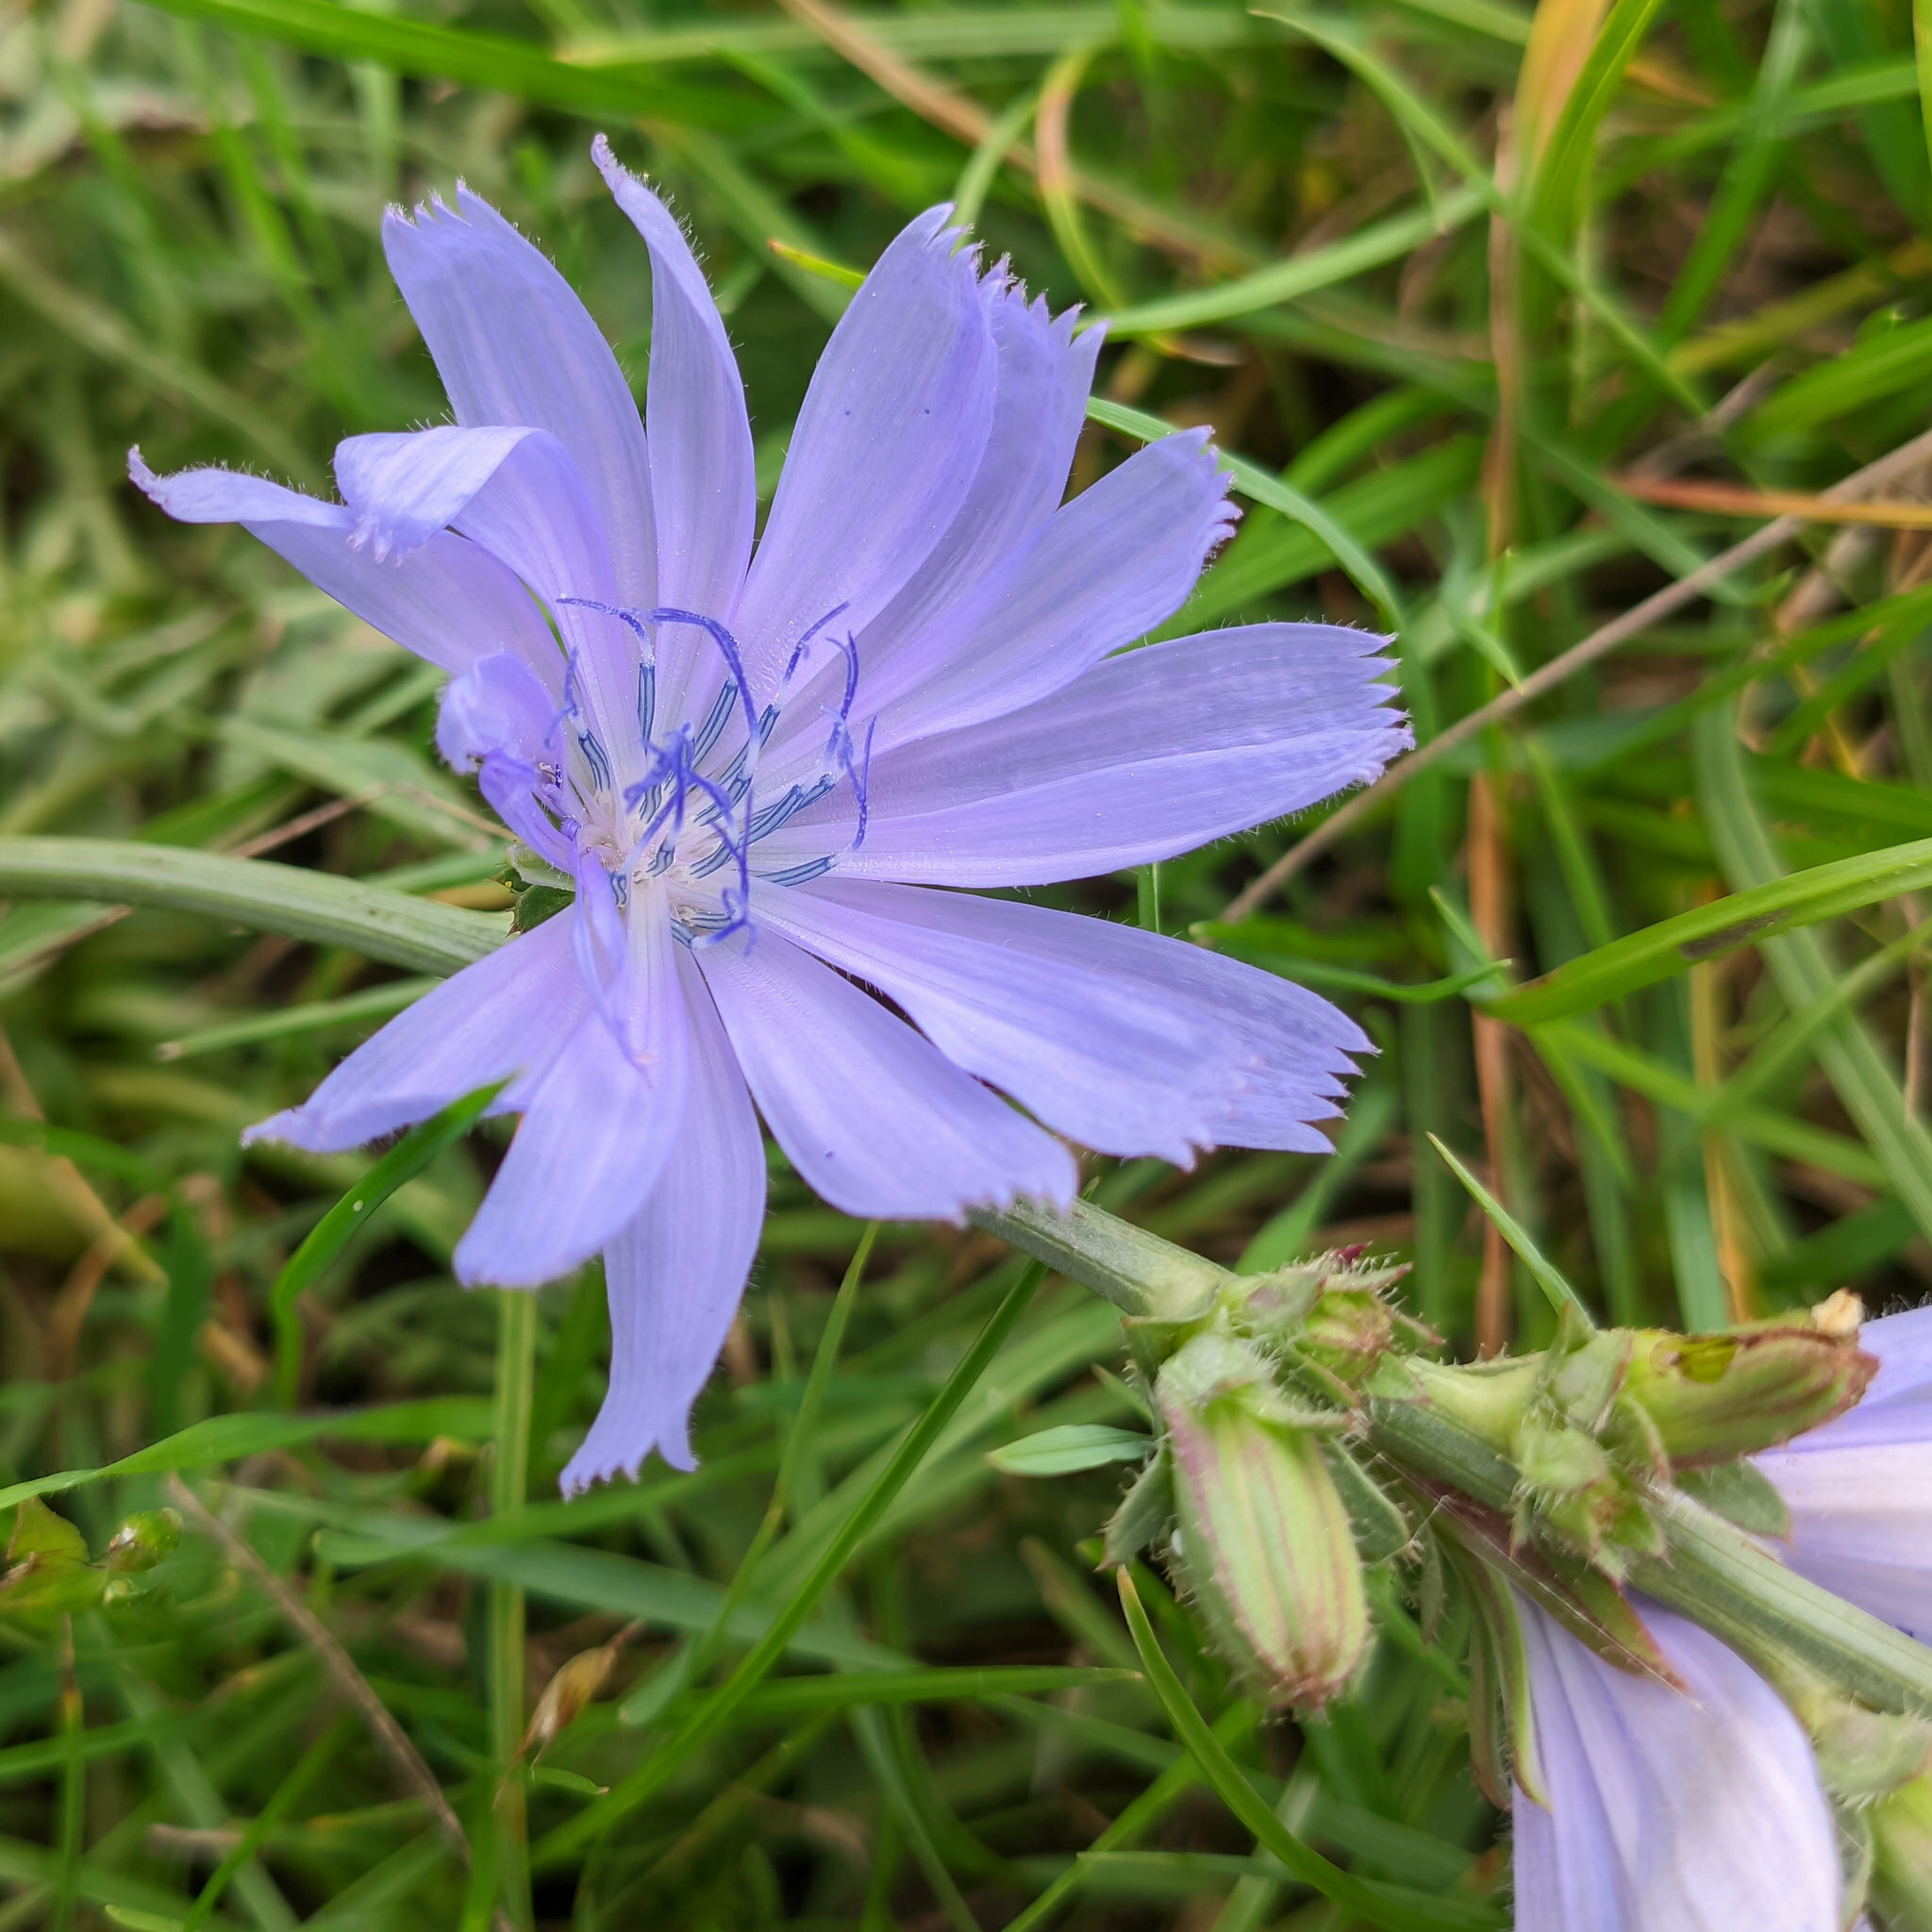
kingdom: Plantae
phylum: Tracheophyta
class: Magnoliopsida
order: Asterales
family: Asteraceae
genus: Cichorium
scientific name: Cichorium intybus
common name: Chicory
